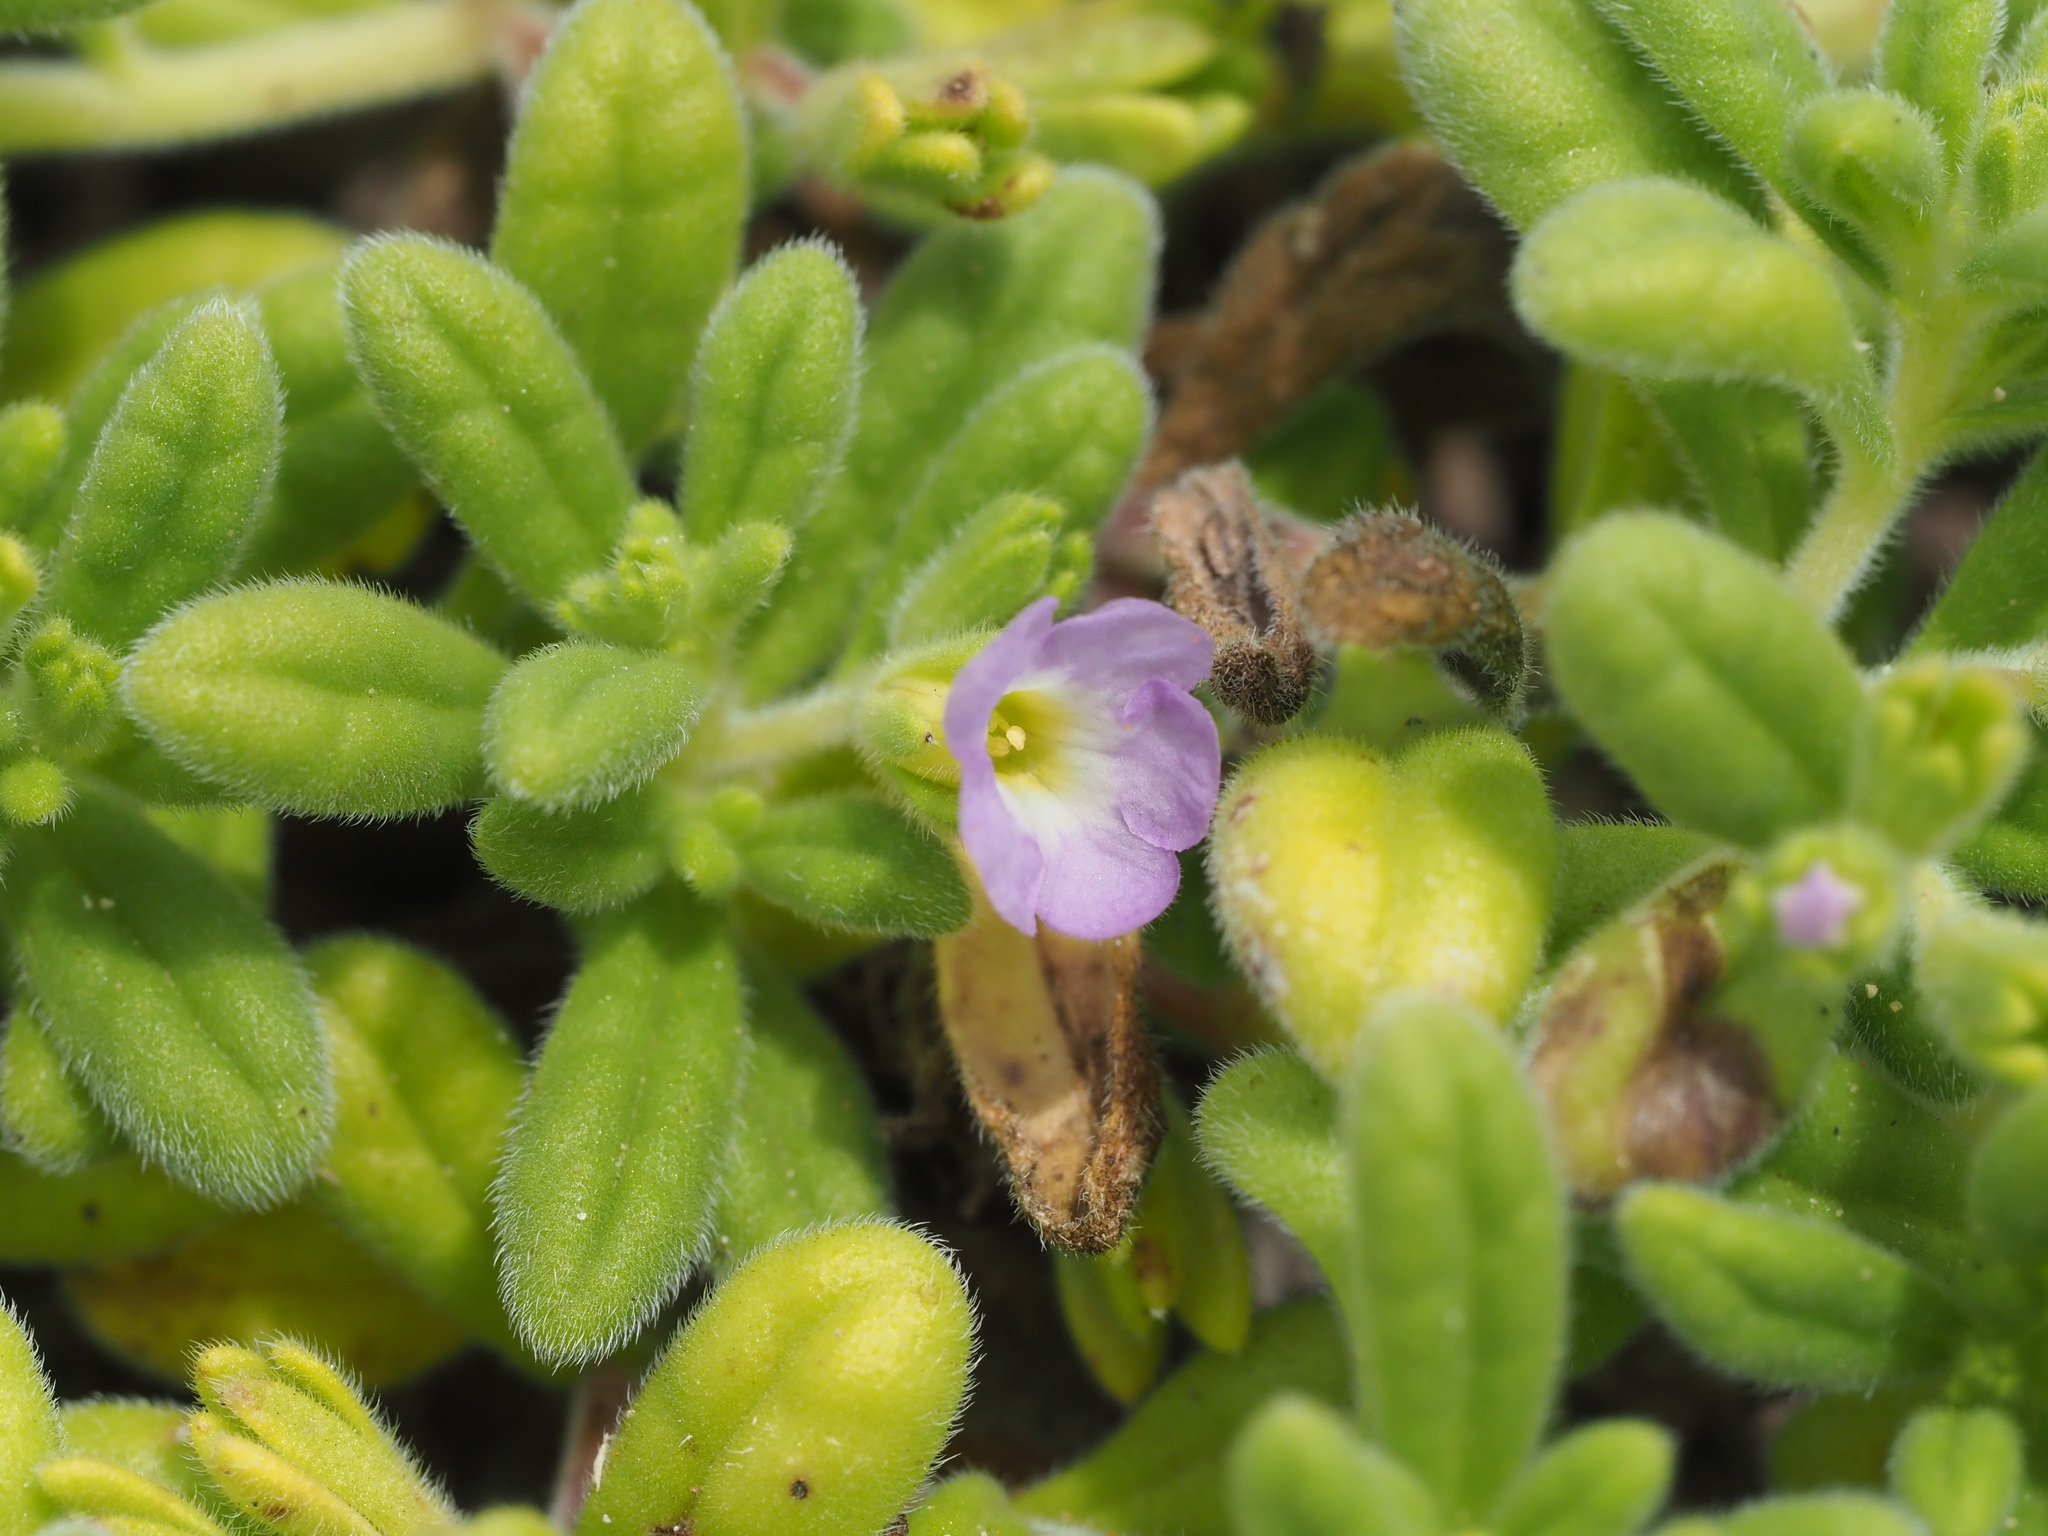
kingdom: Plantae
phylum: Tracheophyta
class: Magnoliopsida
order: Boraginales
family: Namaceae
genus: Nama
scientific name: Nama sandwicense
